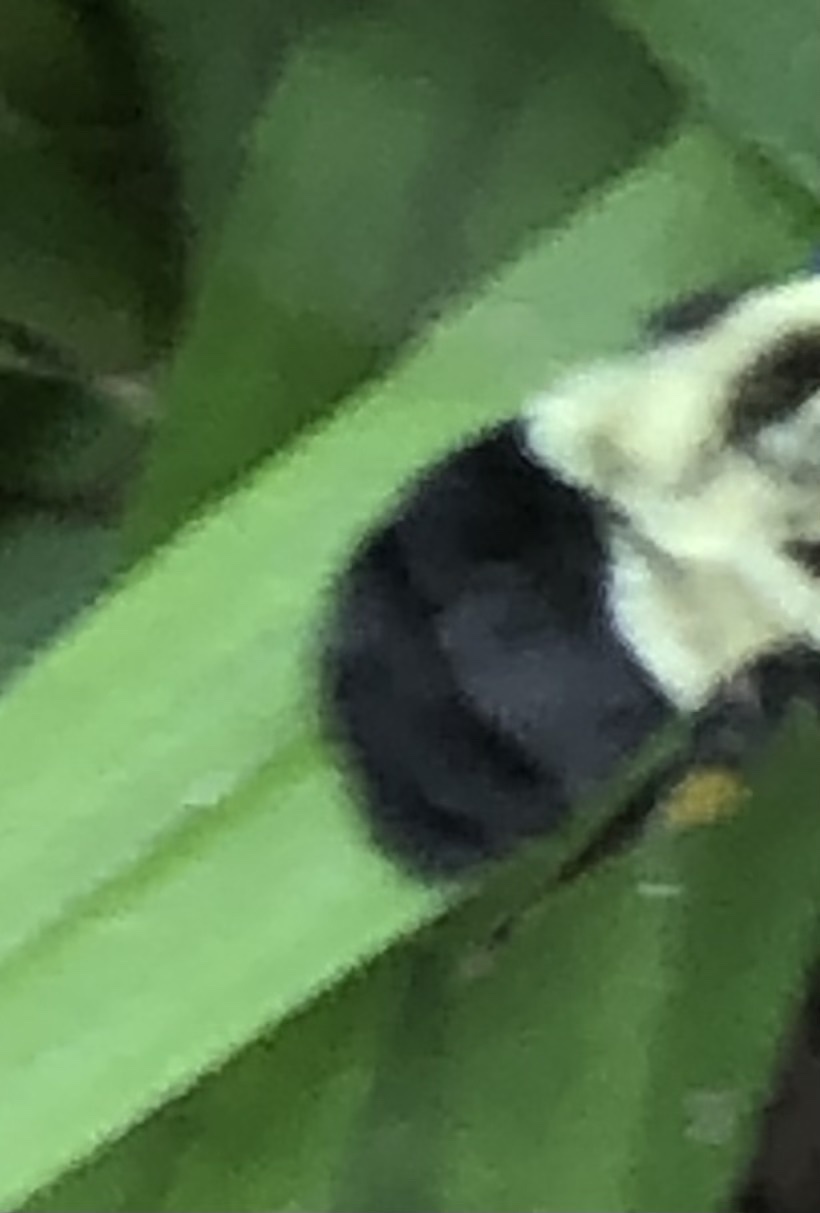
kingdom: Animalia
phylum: Arthropoda
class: Insecta
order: Hymenoptera
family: Apidae
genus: Bombus
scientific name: Bombus impatiens
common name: Common eastern bumble bee
